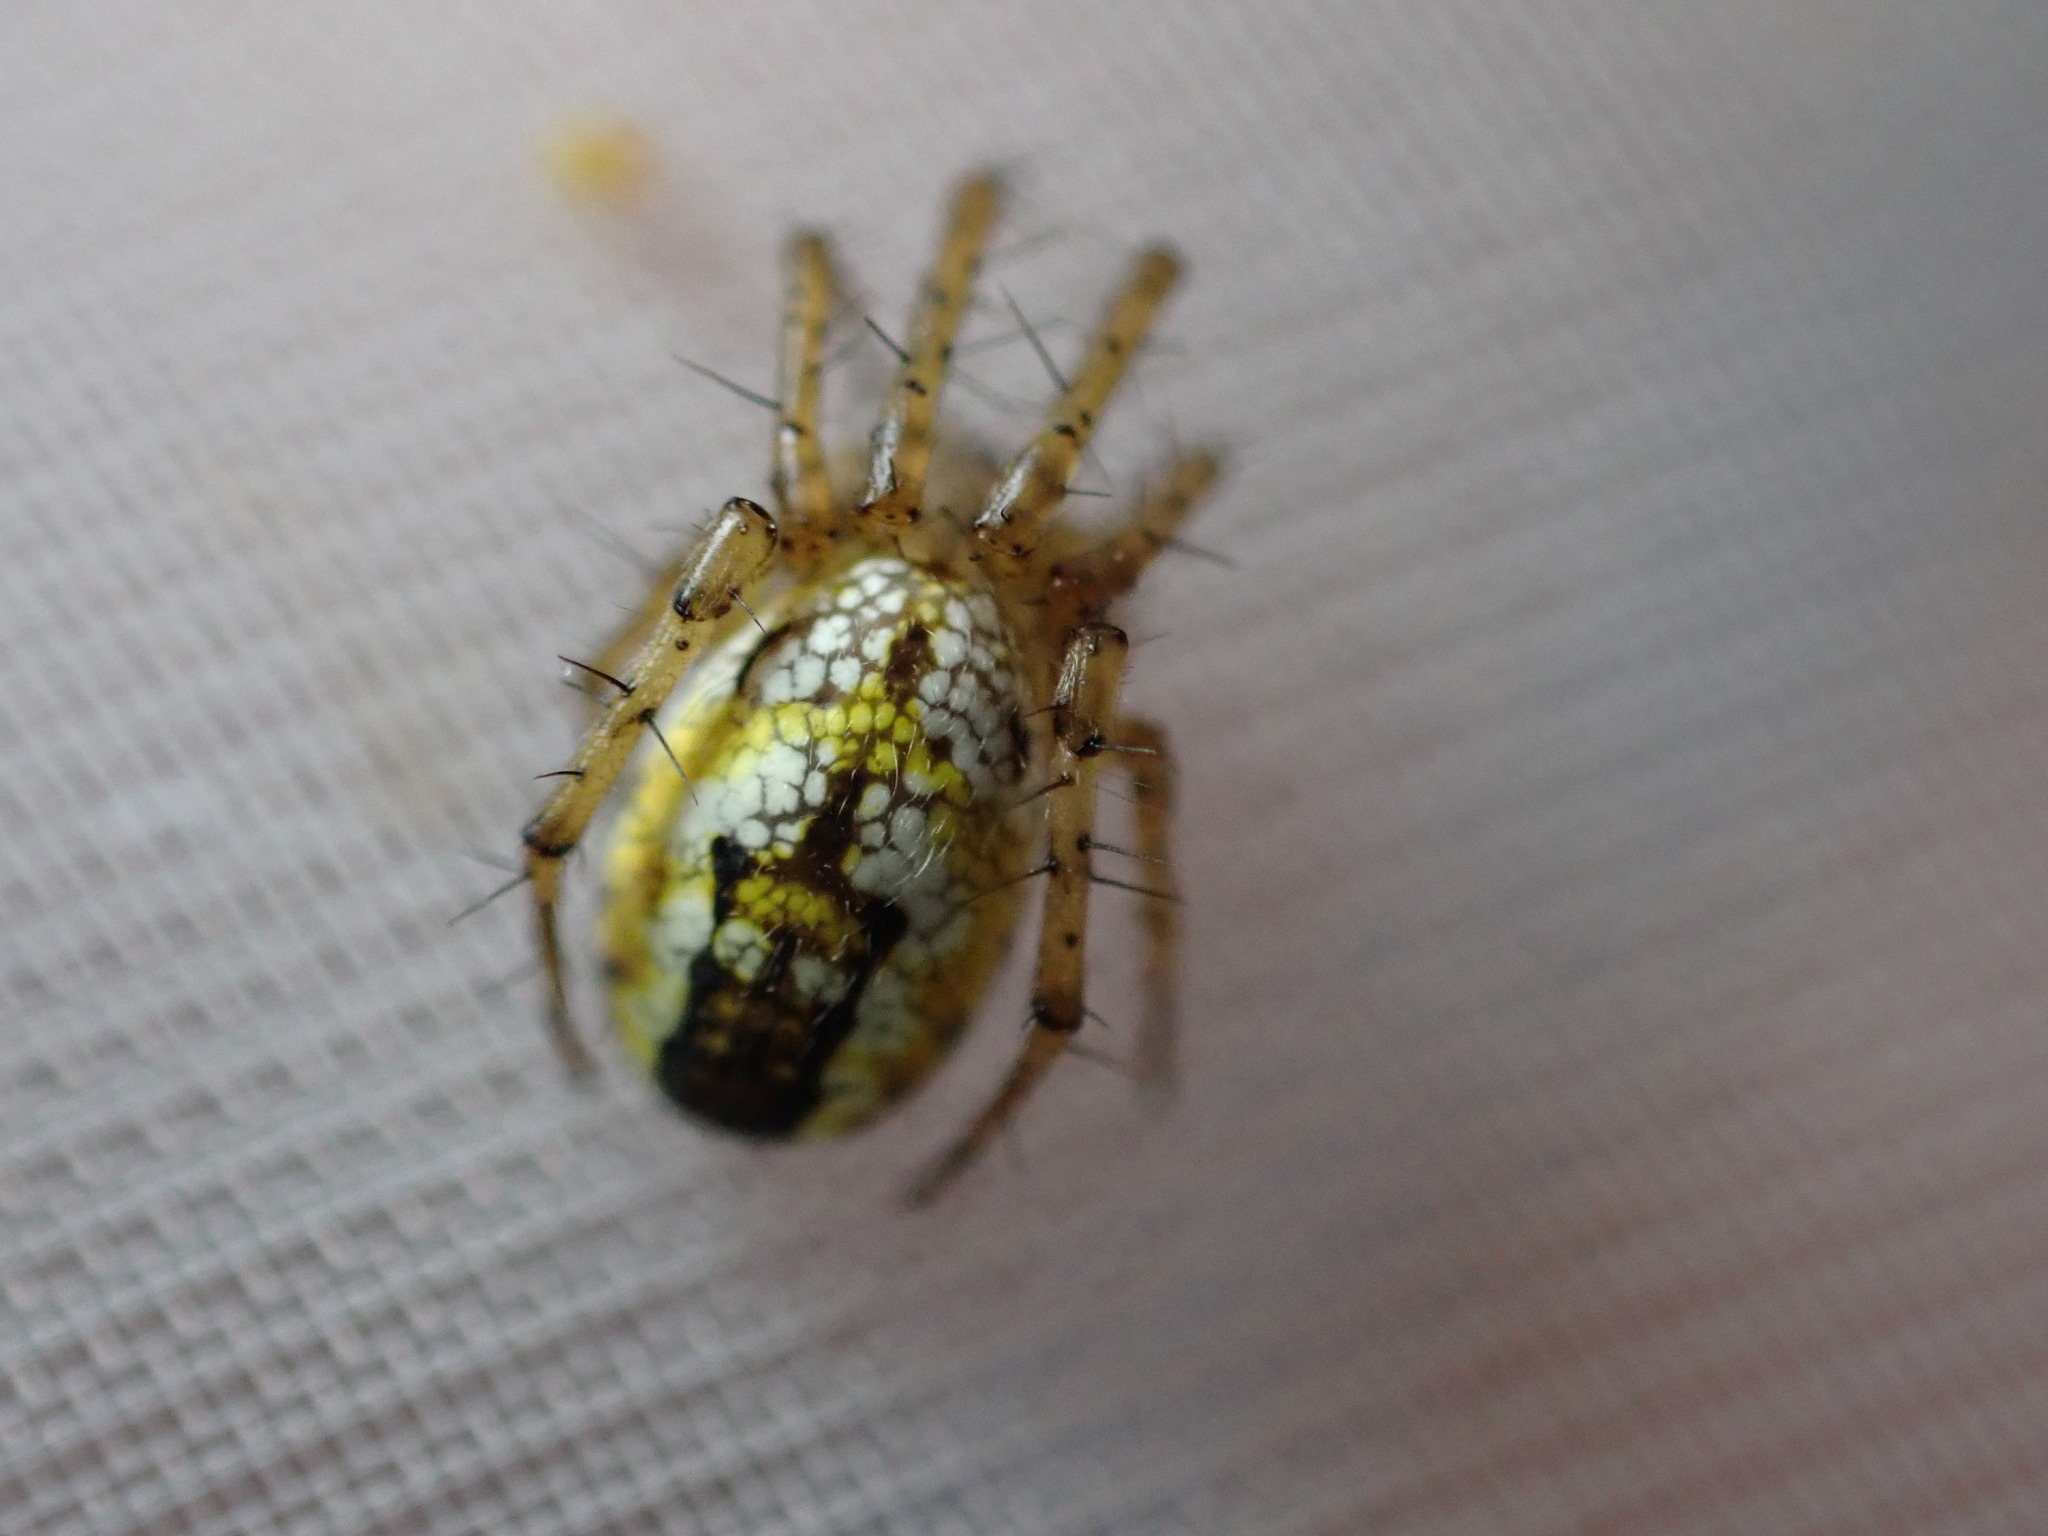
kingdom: Animalia
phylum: Arthropoda
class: Arachnida
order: Araneae
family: Araneidae
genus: Mangora
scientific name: Mangora acalypha
